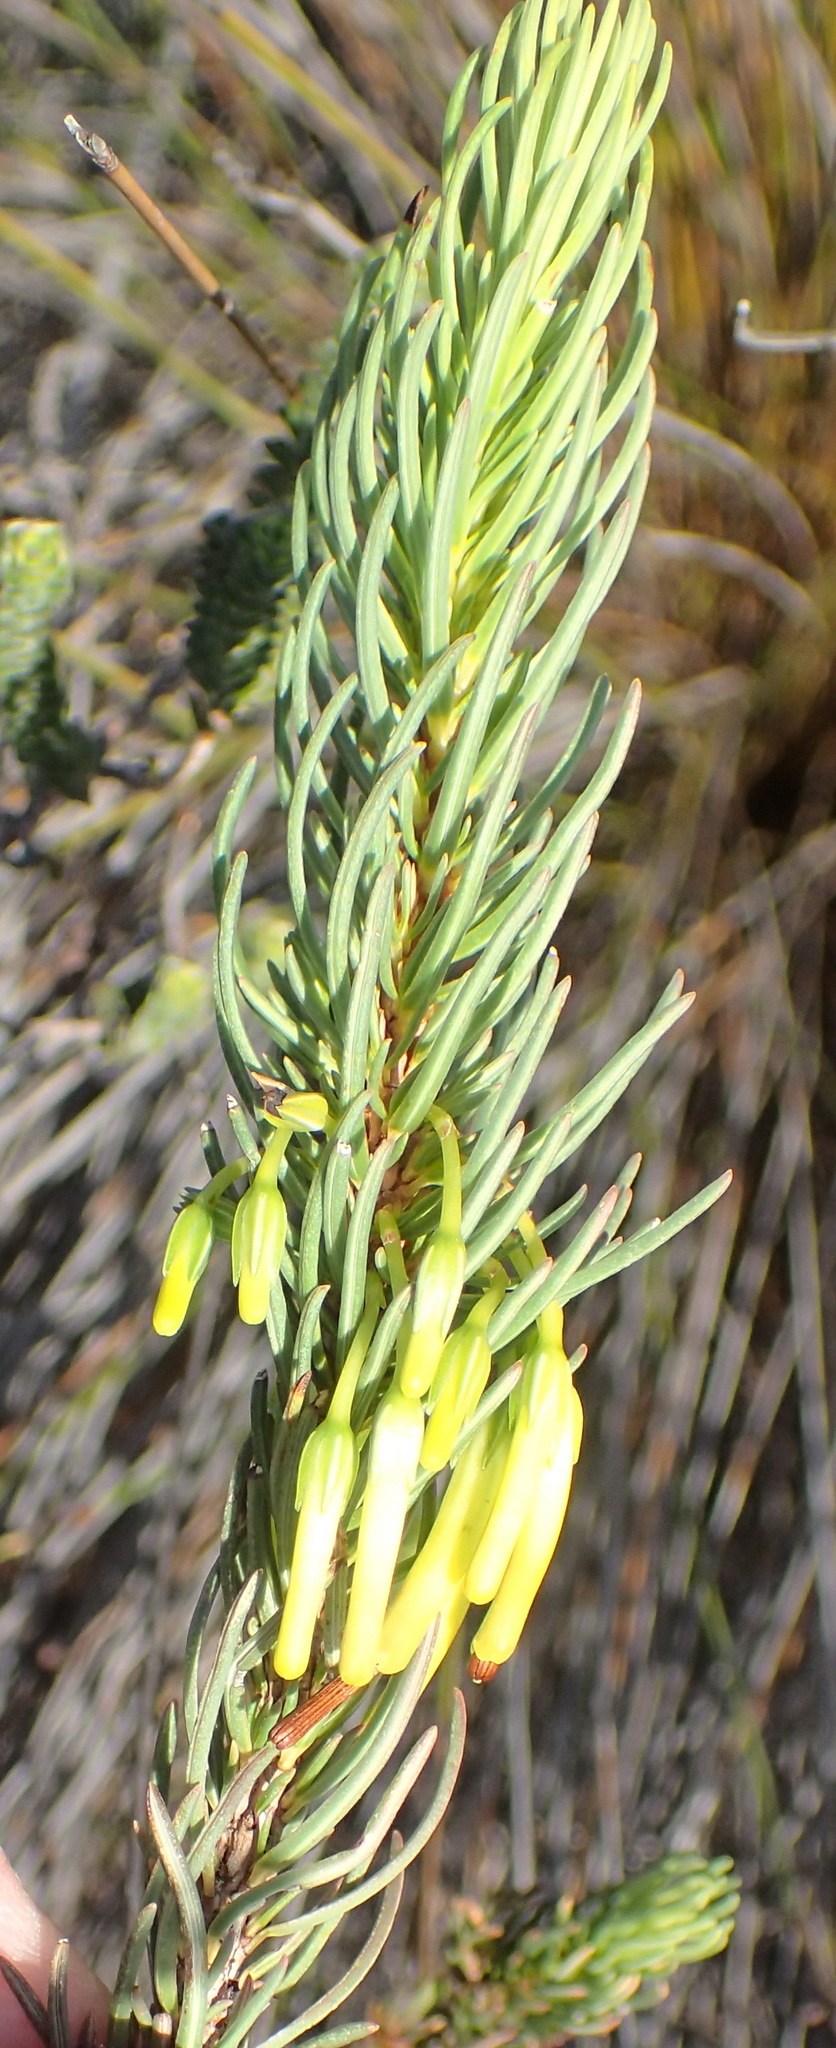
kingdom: Plantae
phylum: Tracheophyta
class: Magnoliopsida
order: Ericales
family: Ericaceae
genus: Erica
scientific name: Erica plukenetii
